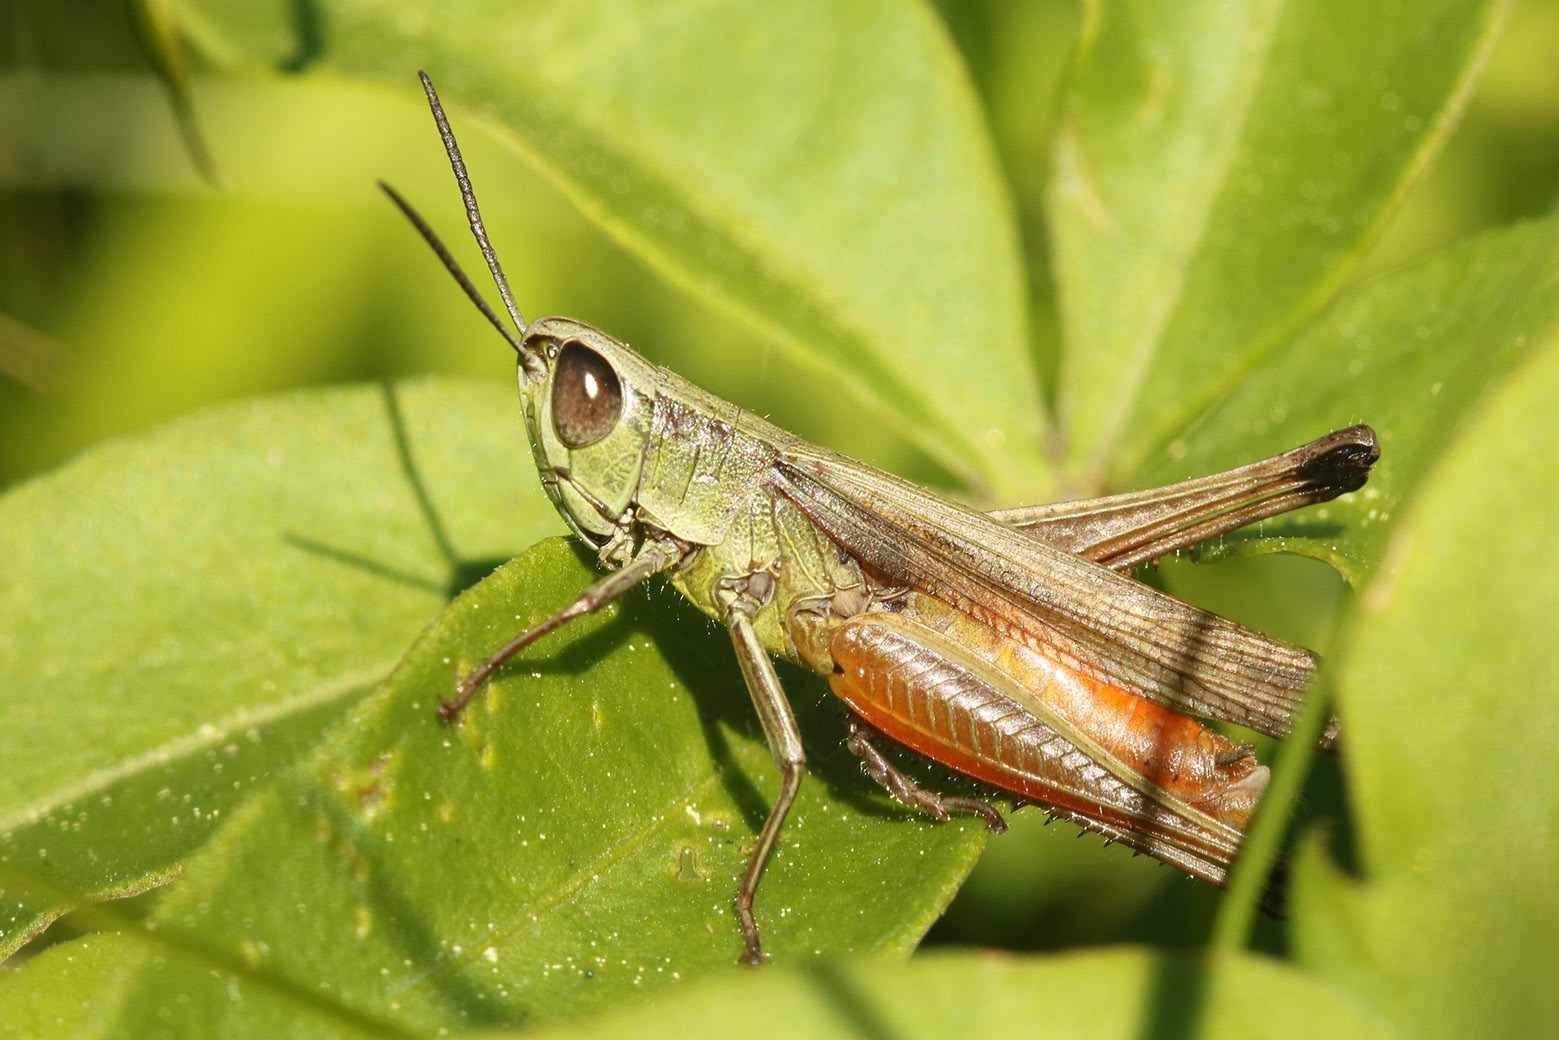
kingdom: Animalia
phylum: Arthropoda
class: Insecta
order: Orthoptera
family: Acrididae
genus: Amblytropidia
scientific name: Amblytropidia australis
